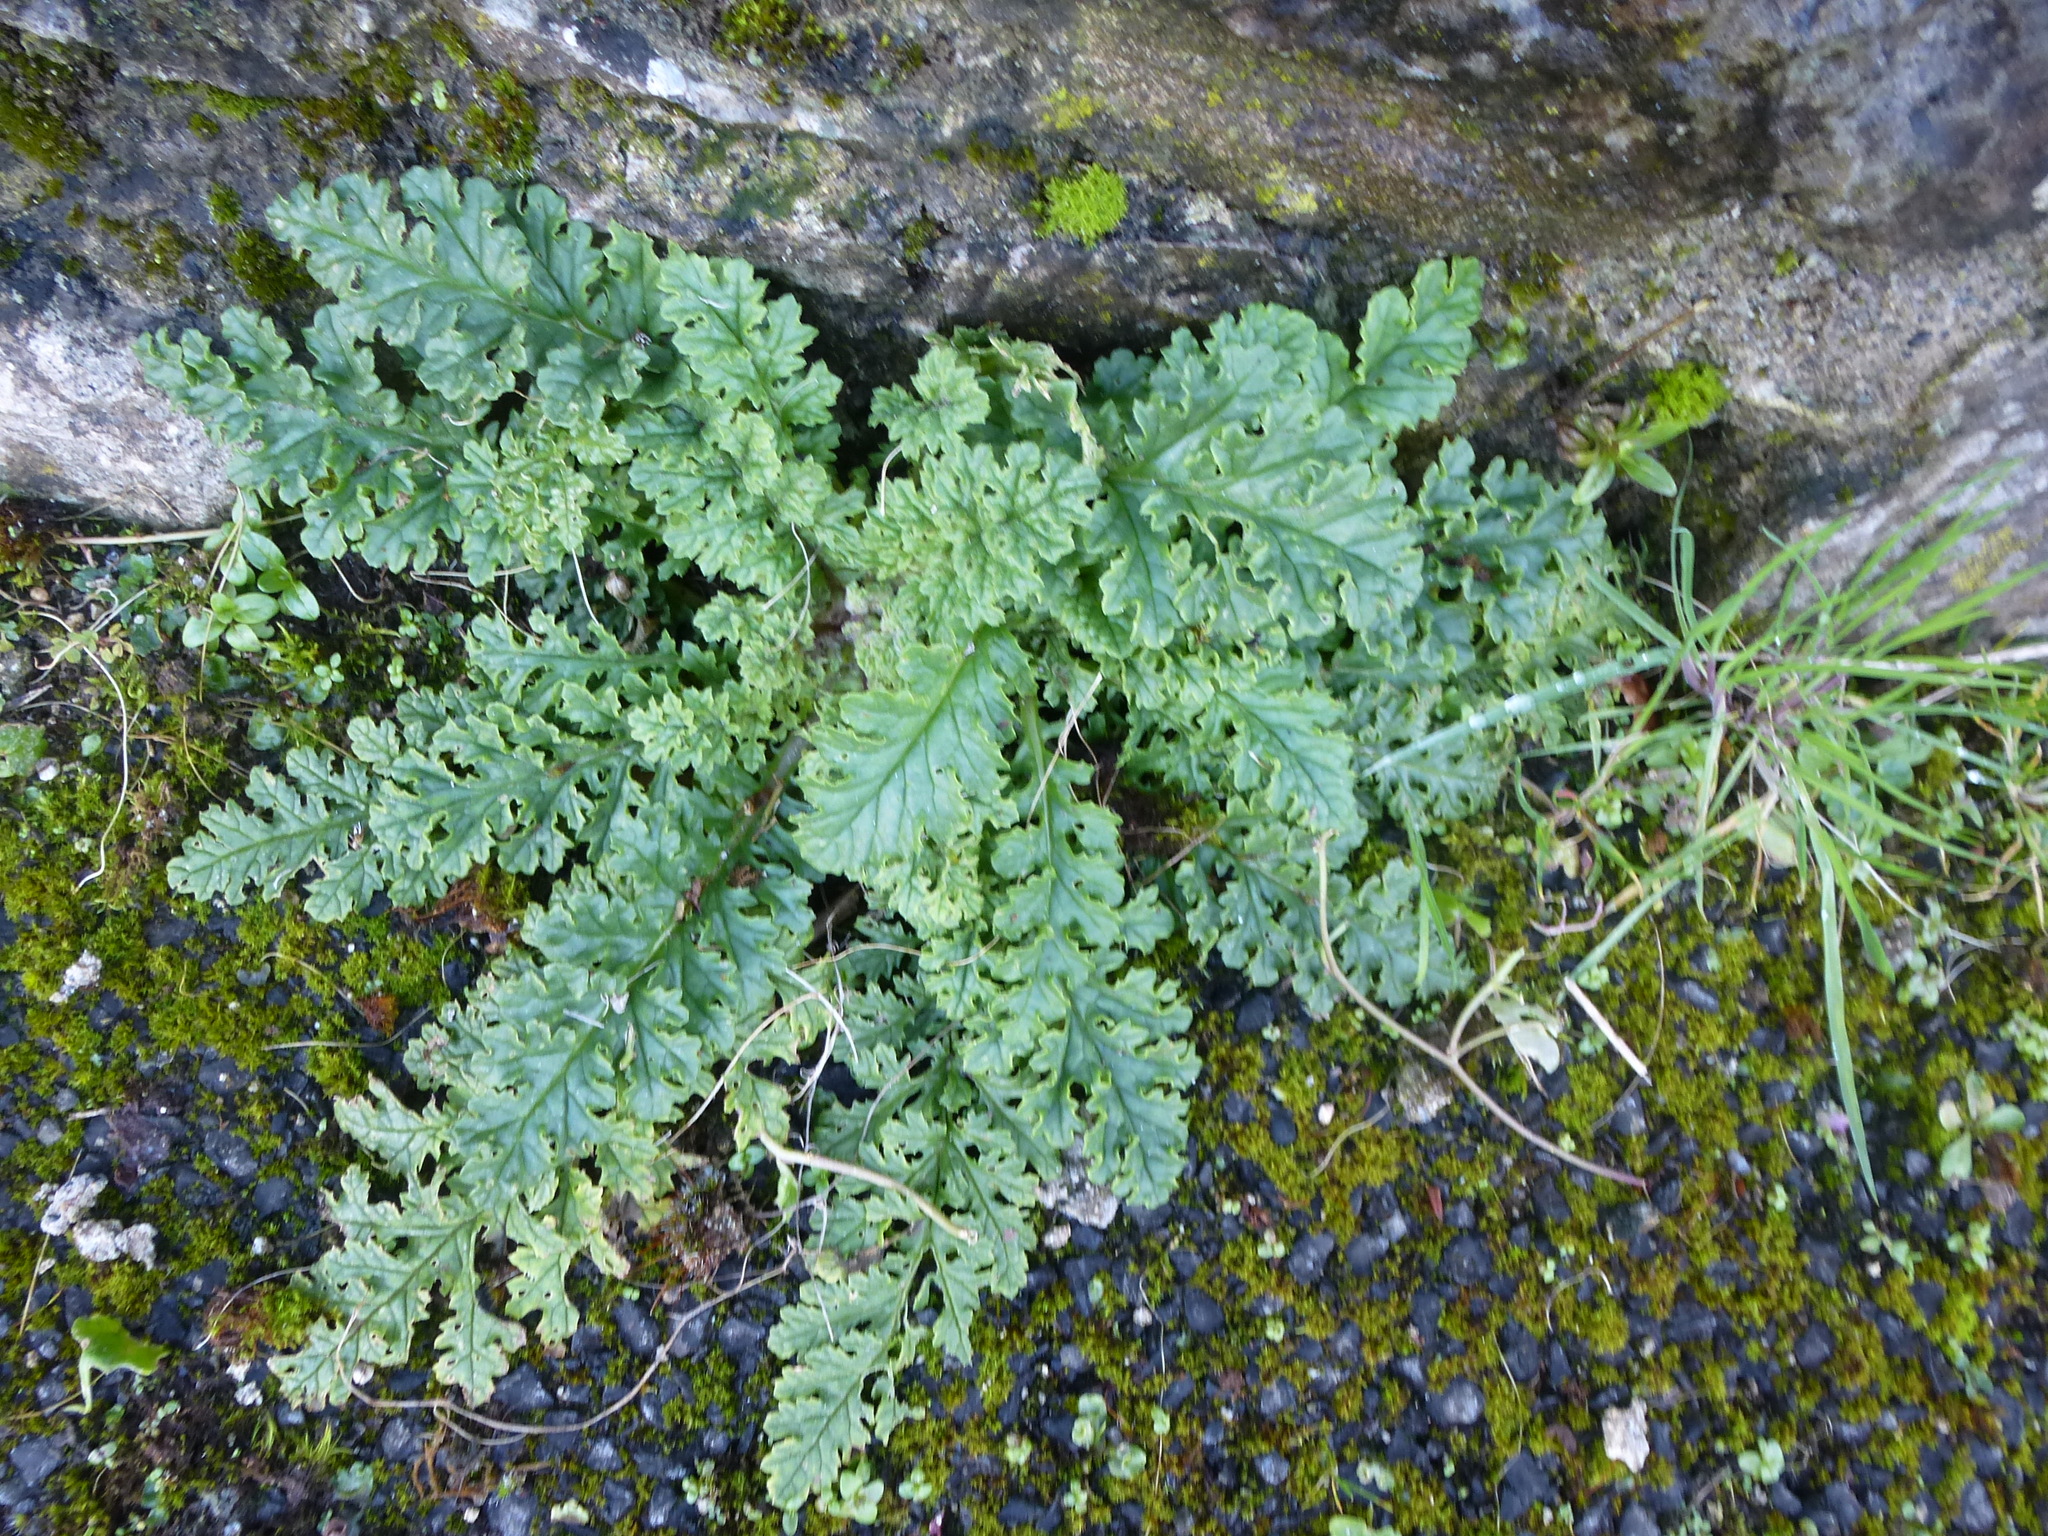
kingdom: Plantae
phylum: Tracheophyta
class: Magnoliopsida
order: Asterales
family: Asteraceae
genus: Jacobaea
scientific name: Jacobaea vulgaris
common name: Stinking willie
